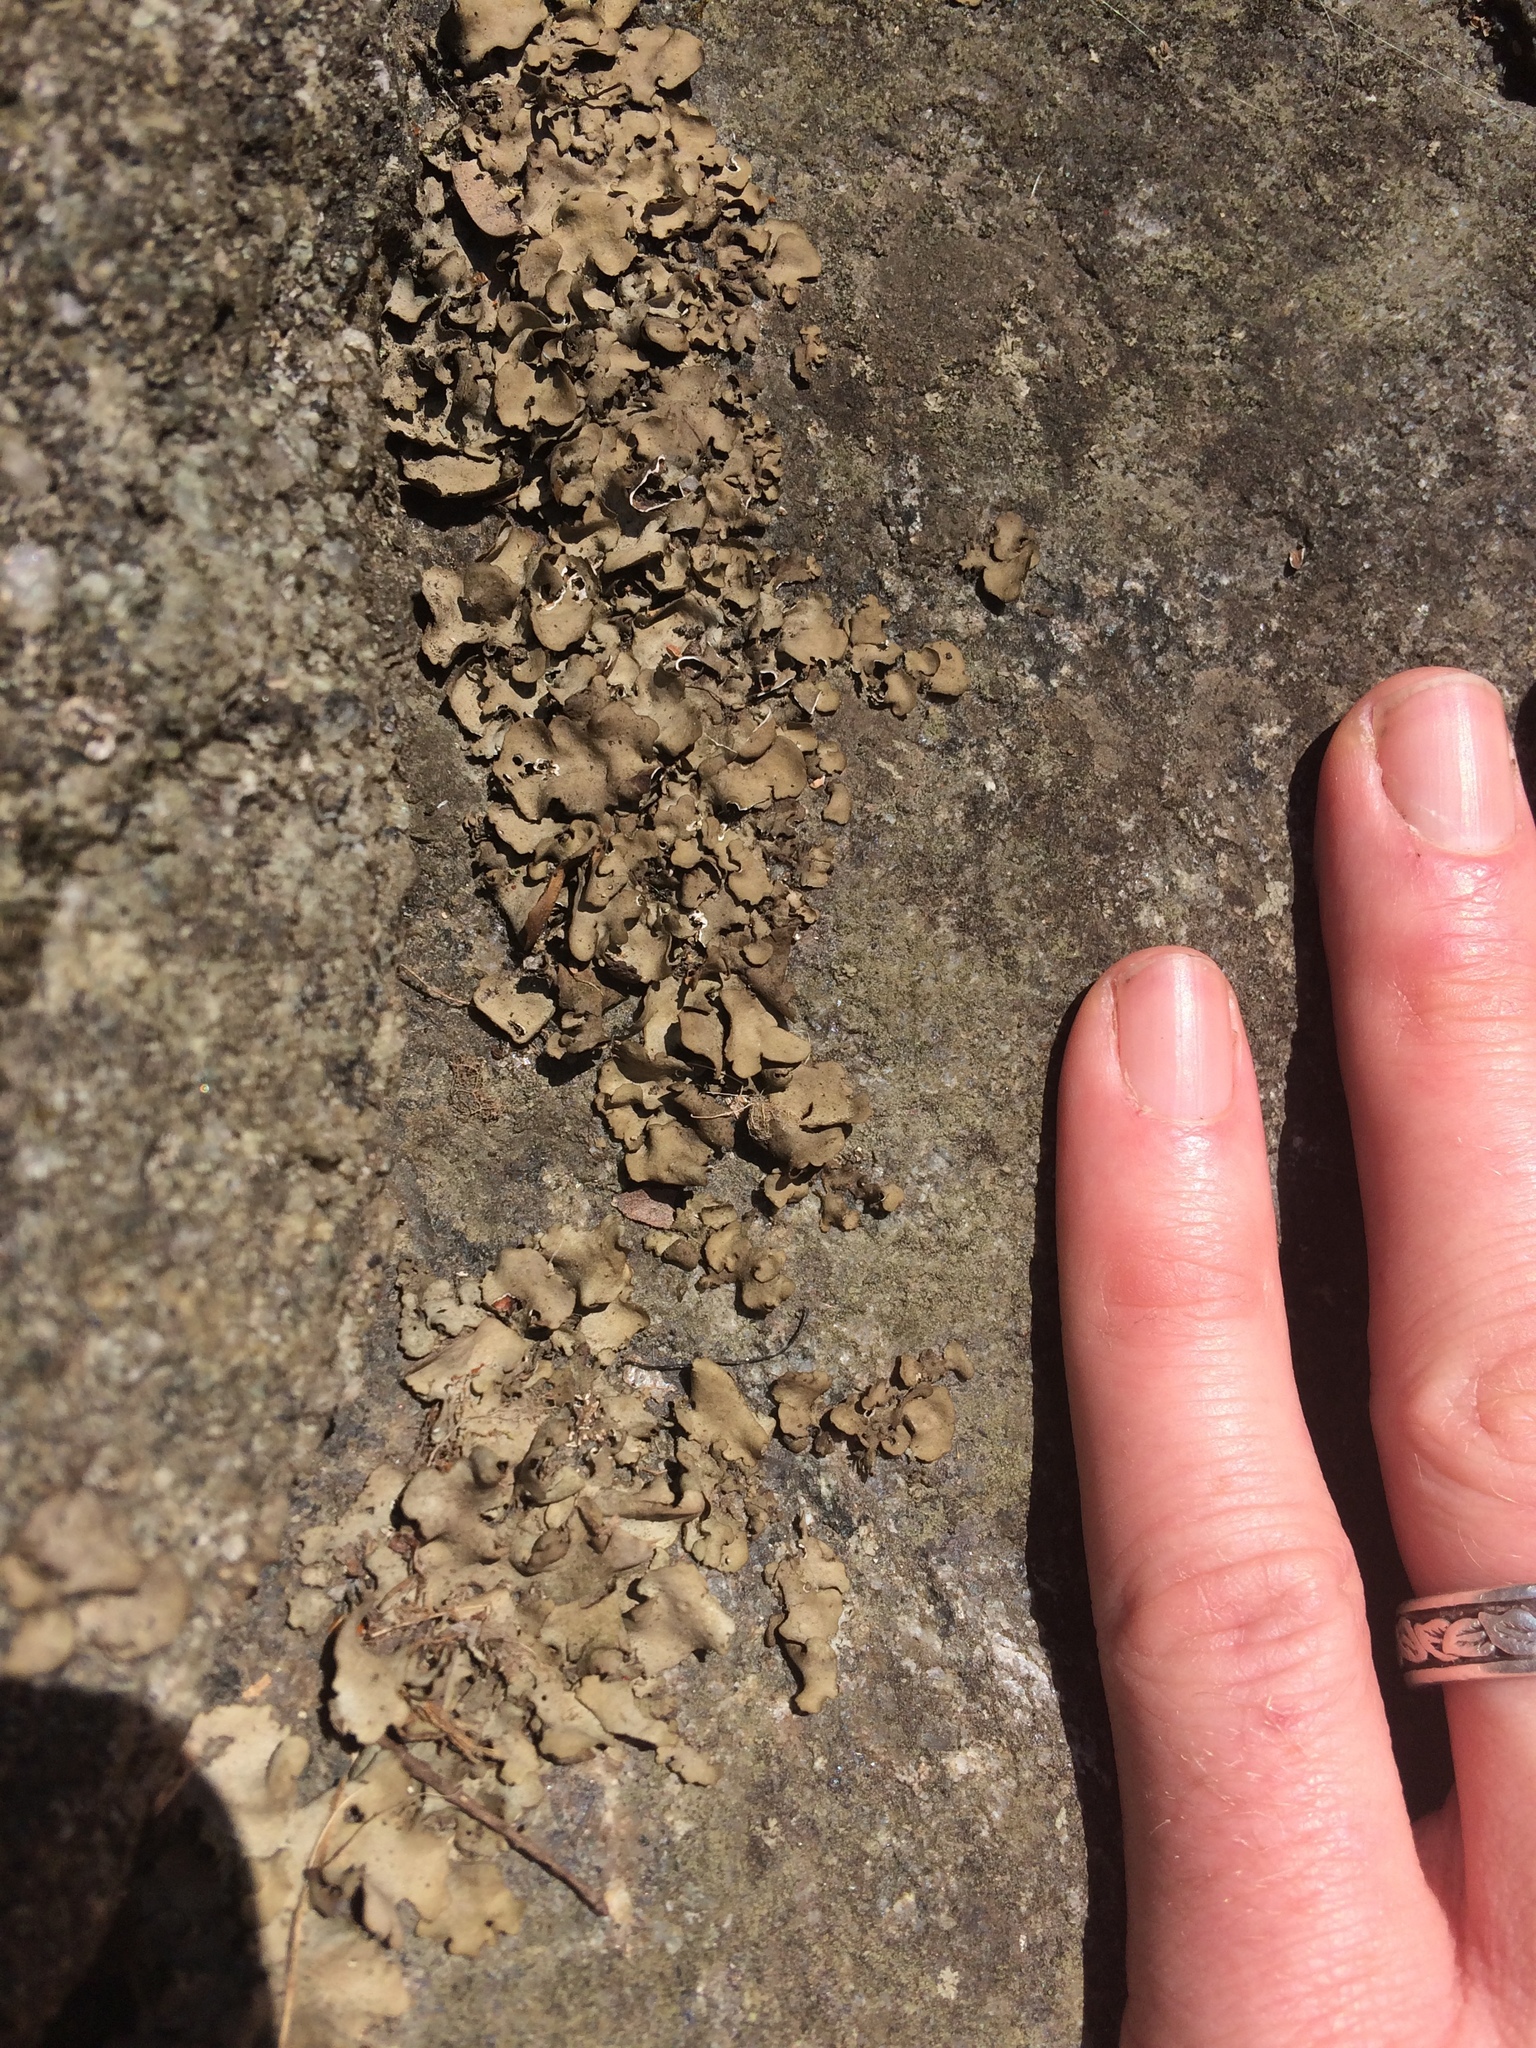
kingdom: Fungi
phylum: Ascomycota
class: Eurotiomycetes
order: Verrucariales
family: Verrucariaceae
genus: Dermatocarpon
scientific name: Dermatocarpon luridum
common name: Brook stippleback lichen
